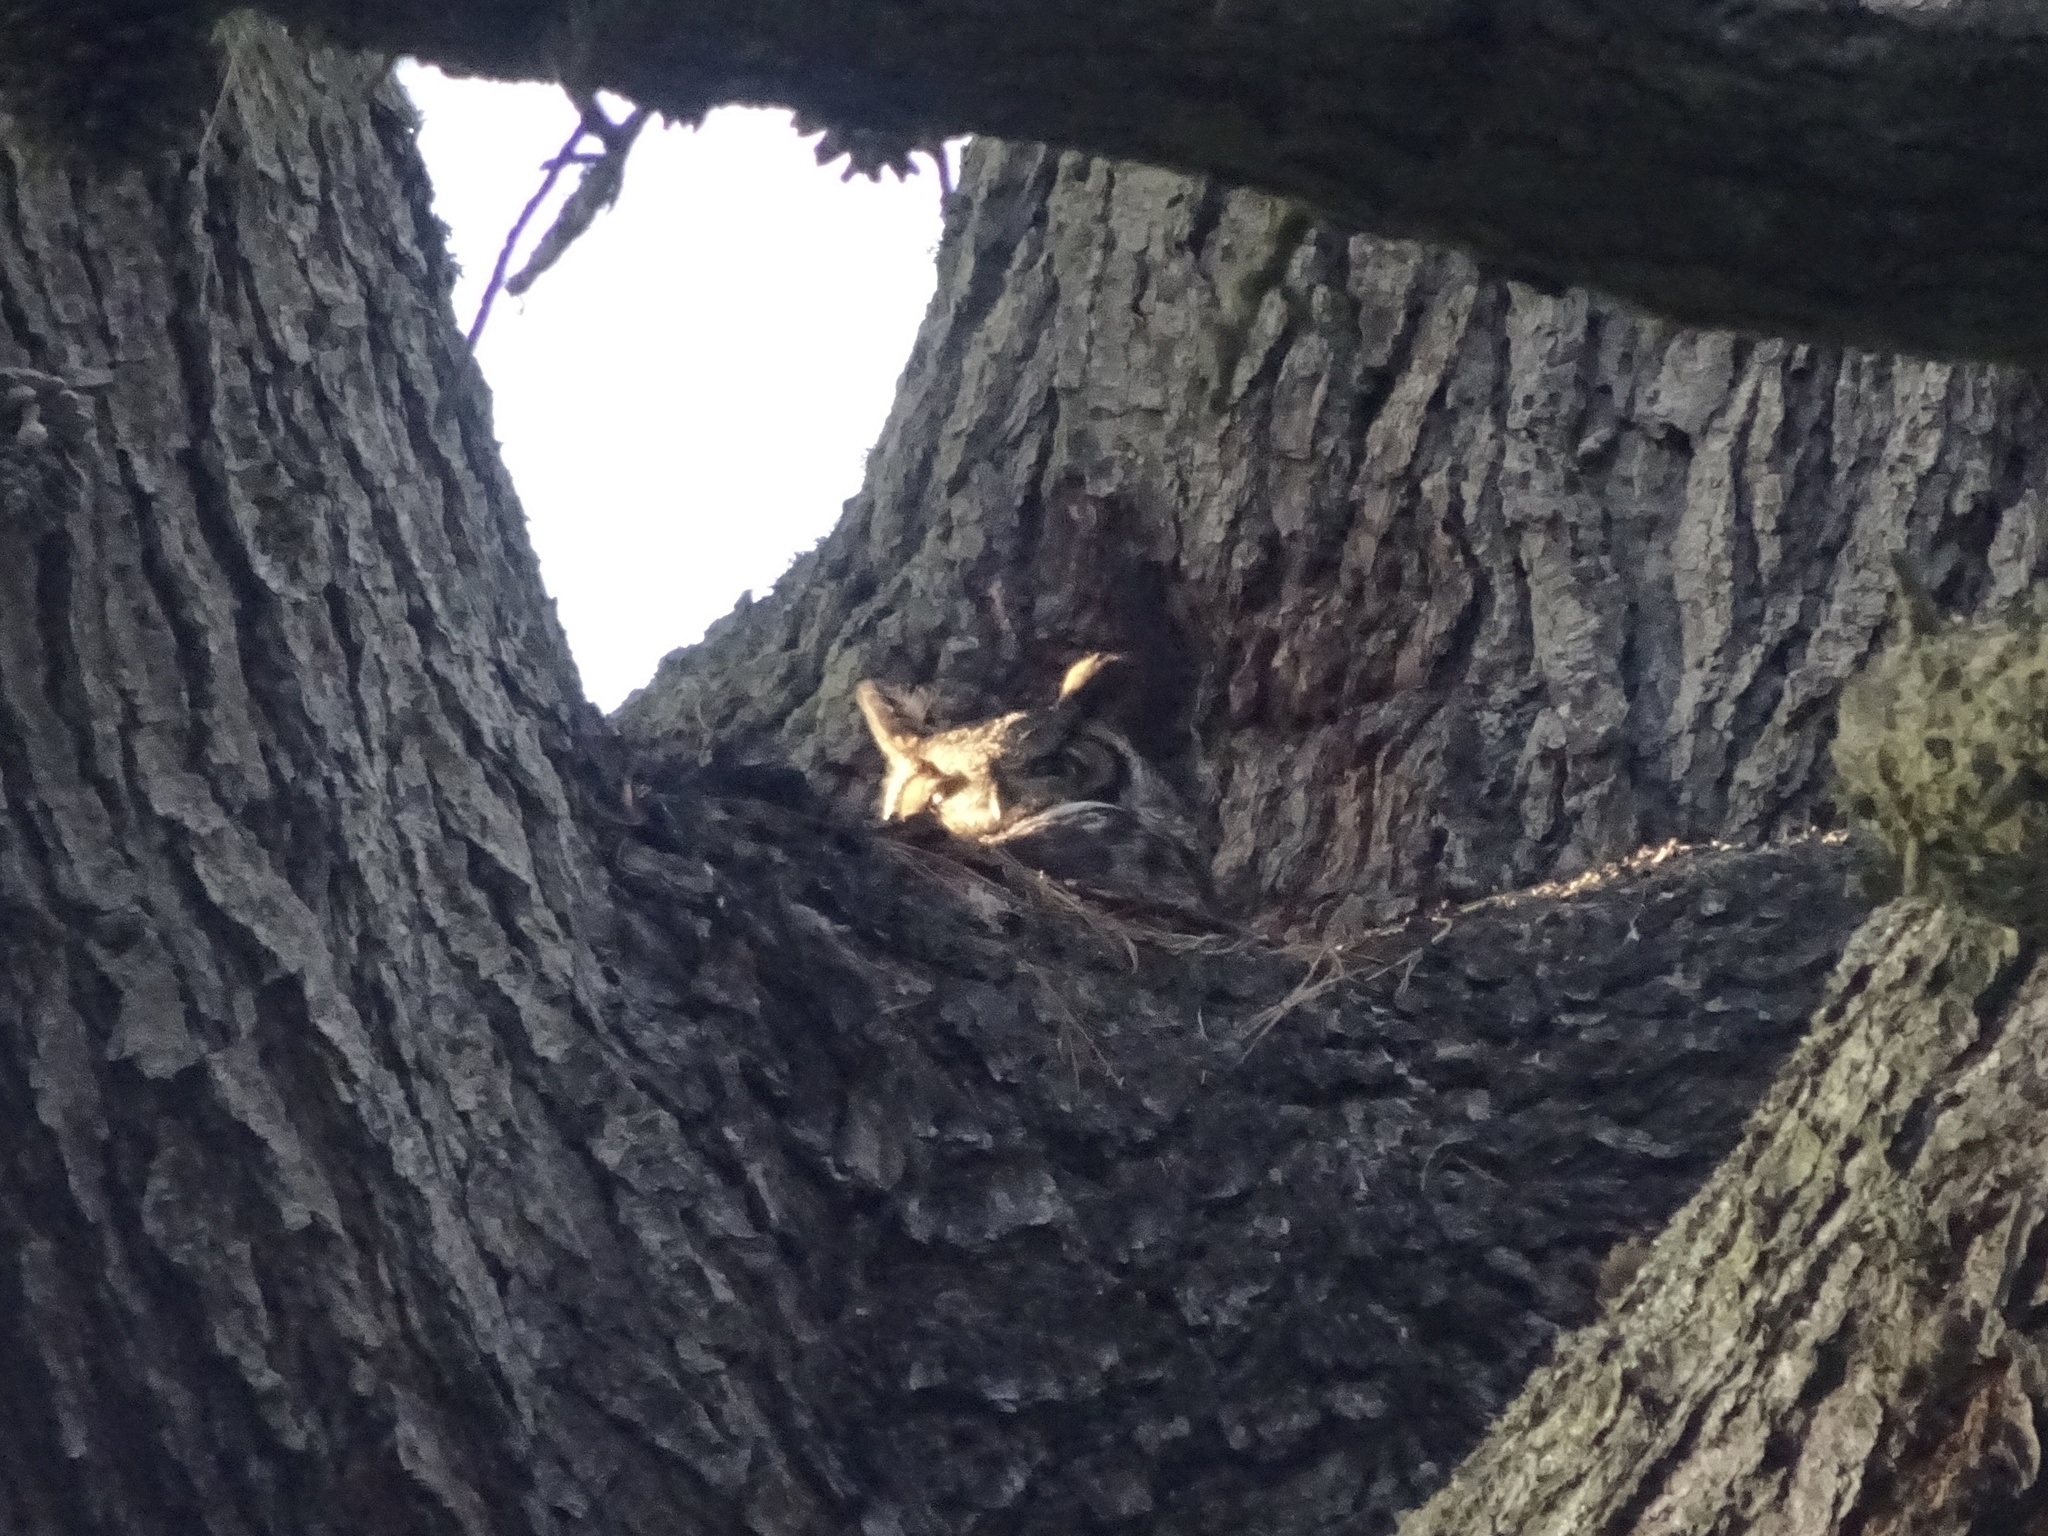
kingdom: Animalia
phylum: Chordata
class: Aves
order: Strigiformes
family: Strigidae
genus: Bubo
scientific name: Bubo virginianus
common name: Great horned owl
